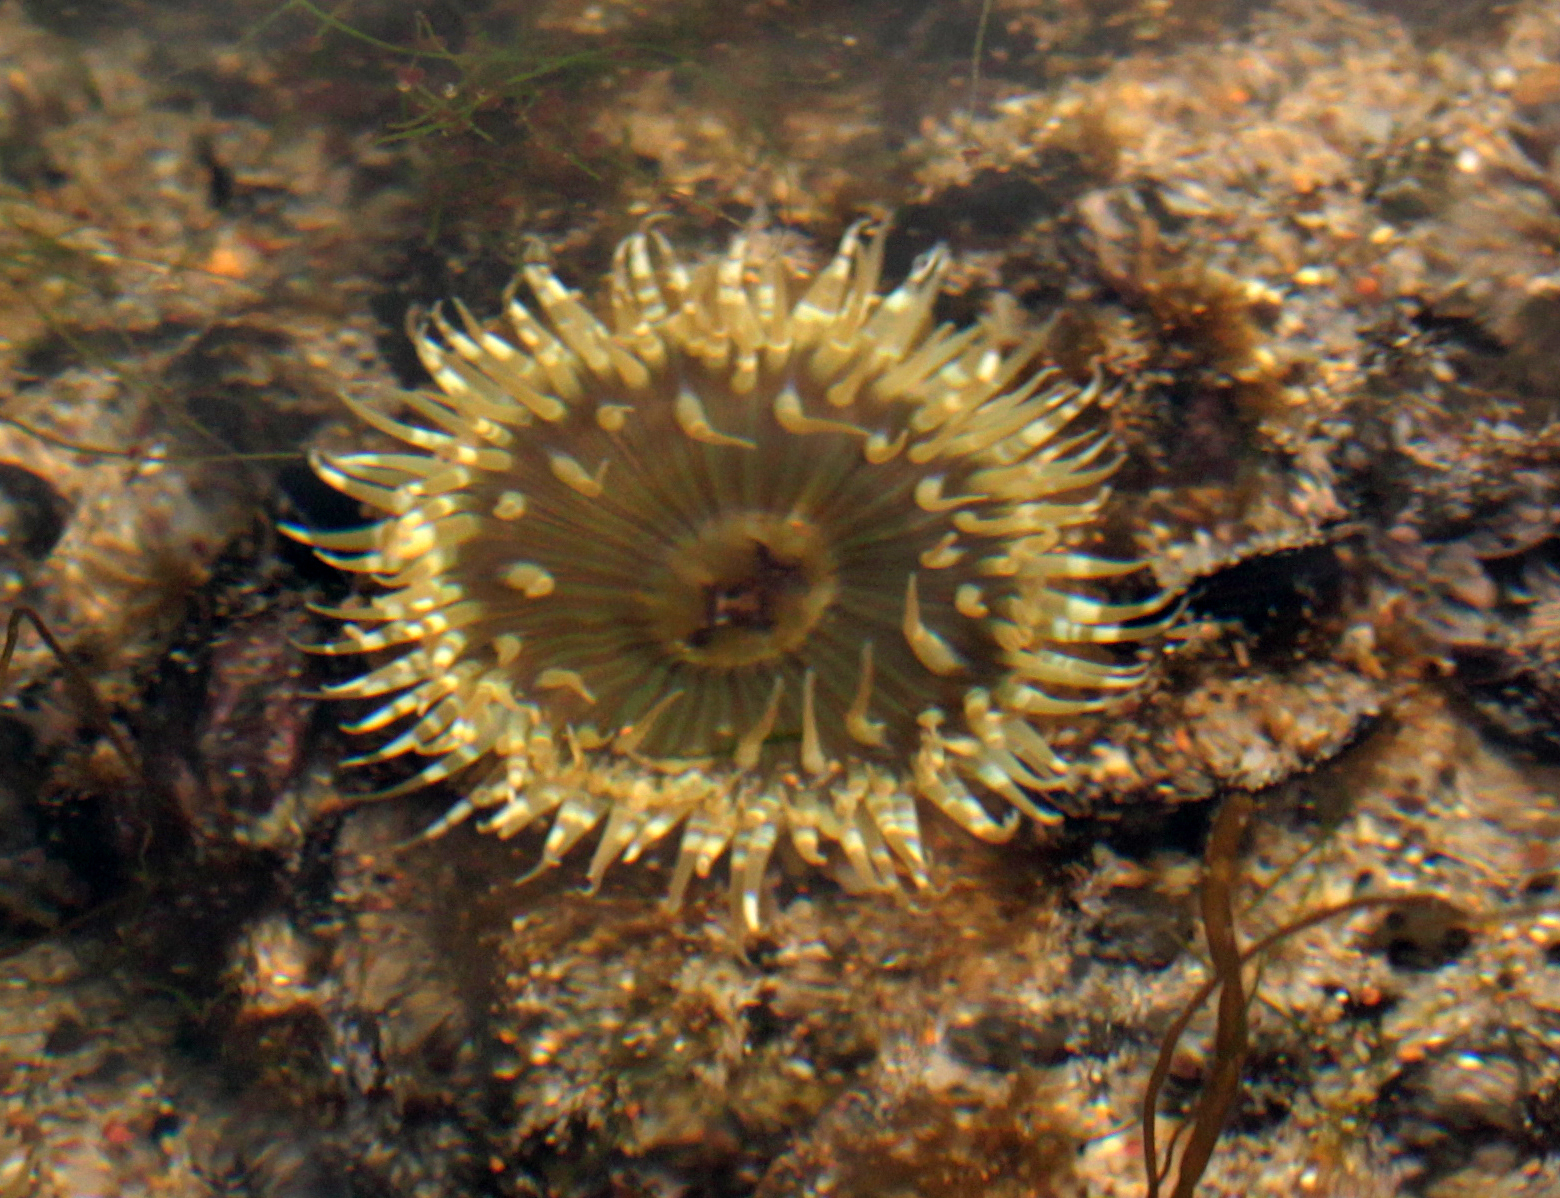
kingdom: Animalia
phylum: Cnidaria
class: Anthozoa
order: Actiniaria
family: Actiniidae
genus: Anthopleura
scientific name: Anthopleura sola
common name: Sun anemone
